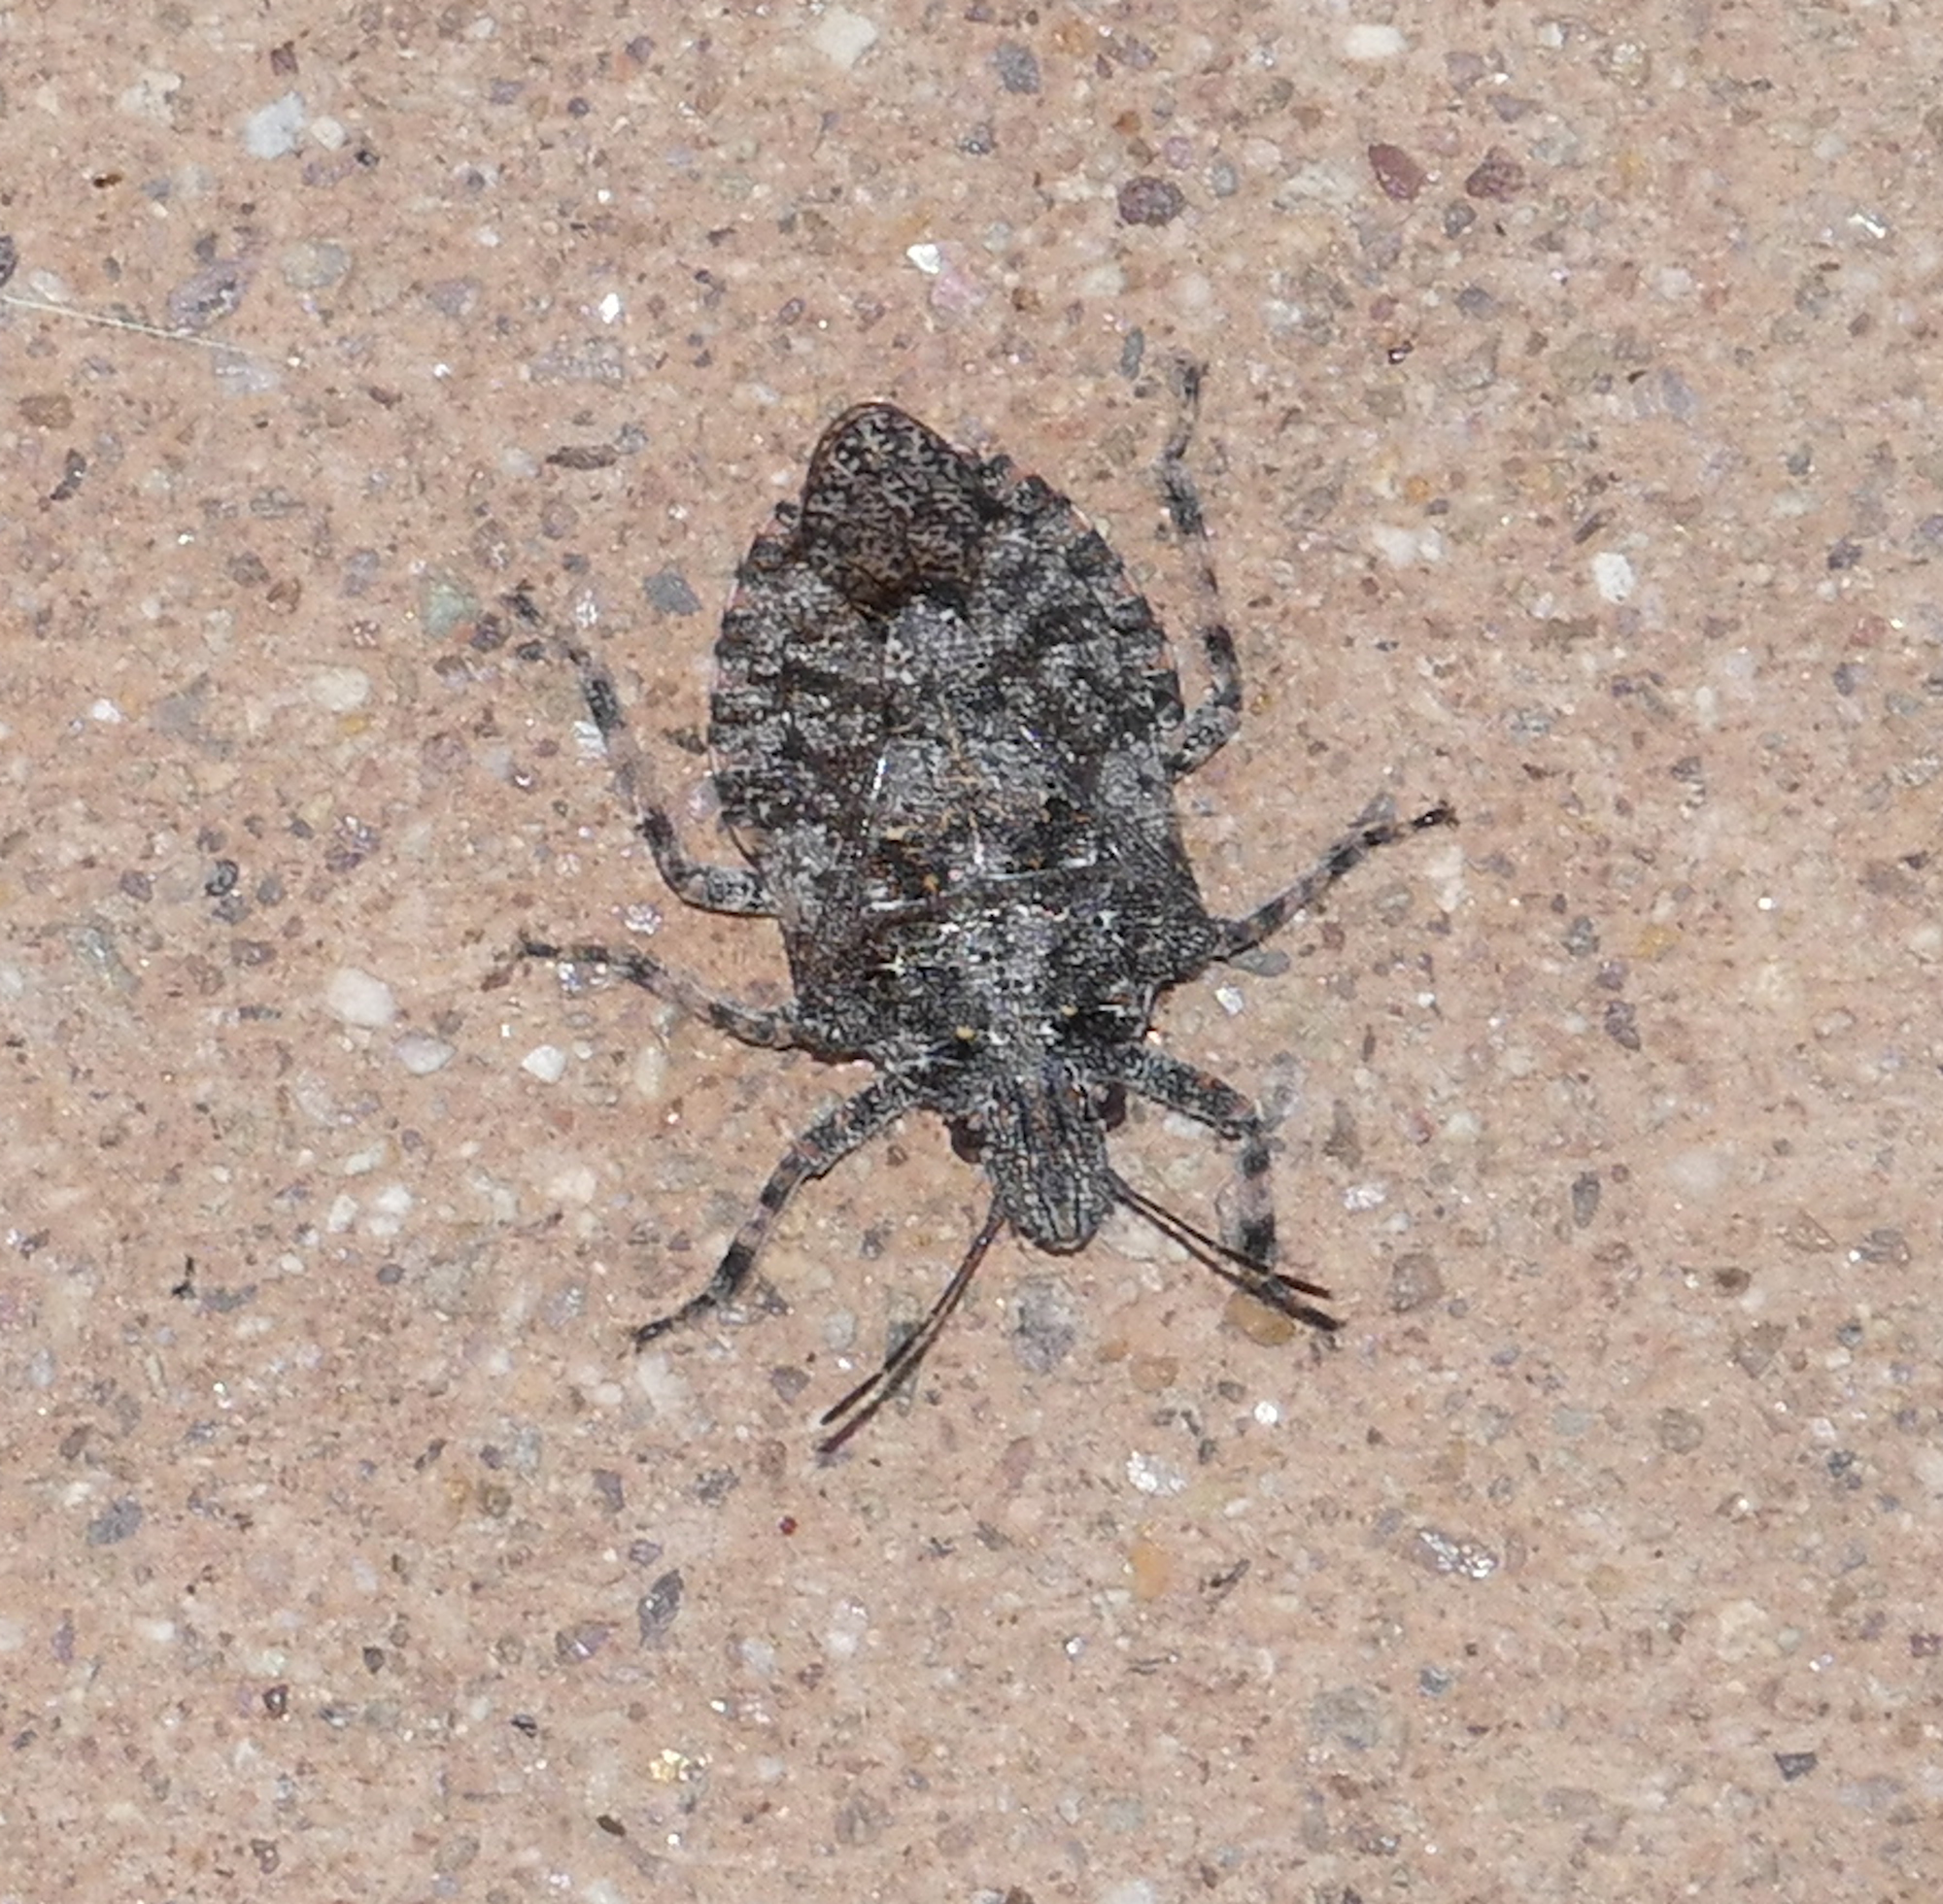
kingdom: Animalia
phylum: Arthropoda
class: Insecta
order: Hemiptera
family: Pentatomidae
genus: Brochymena
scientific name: Brochymena parva
